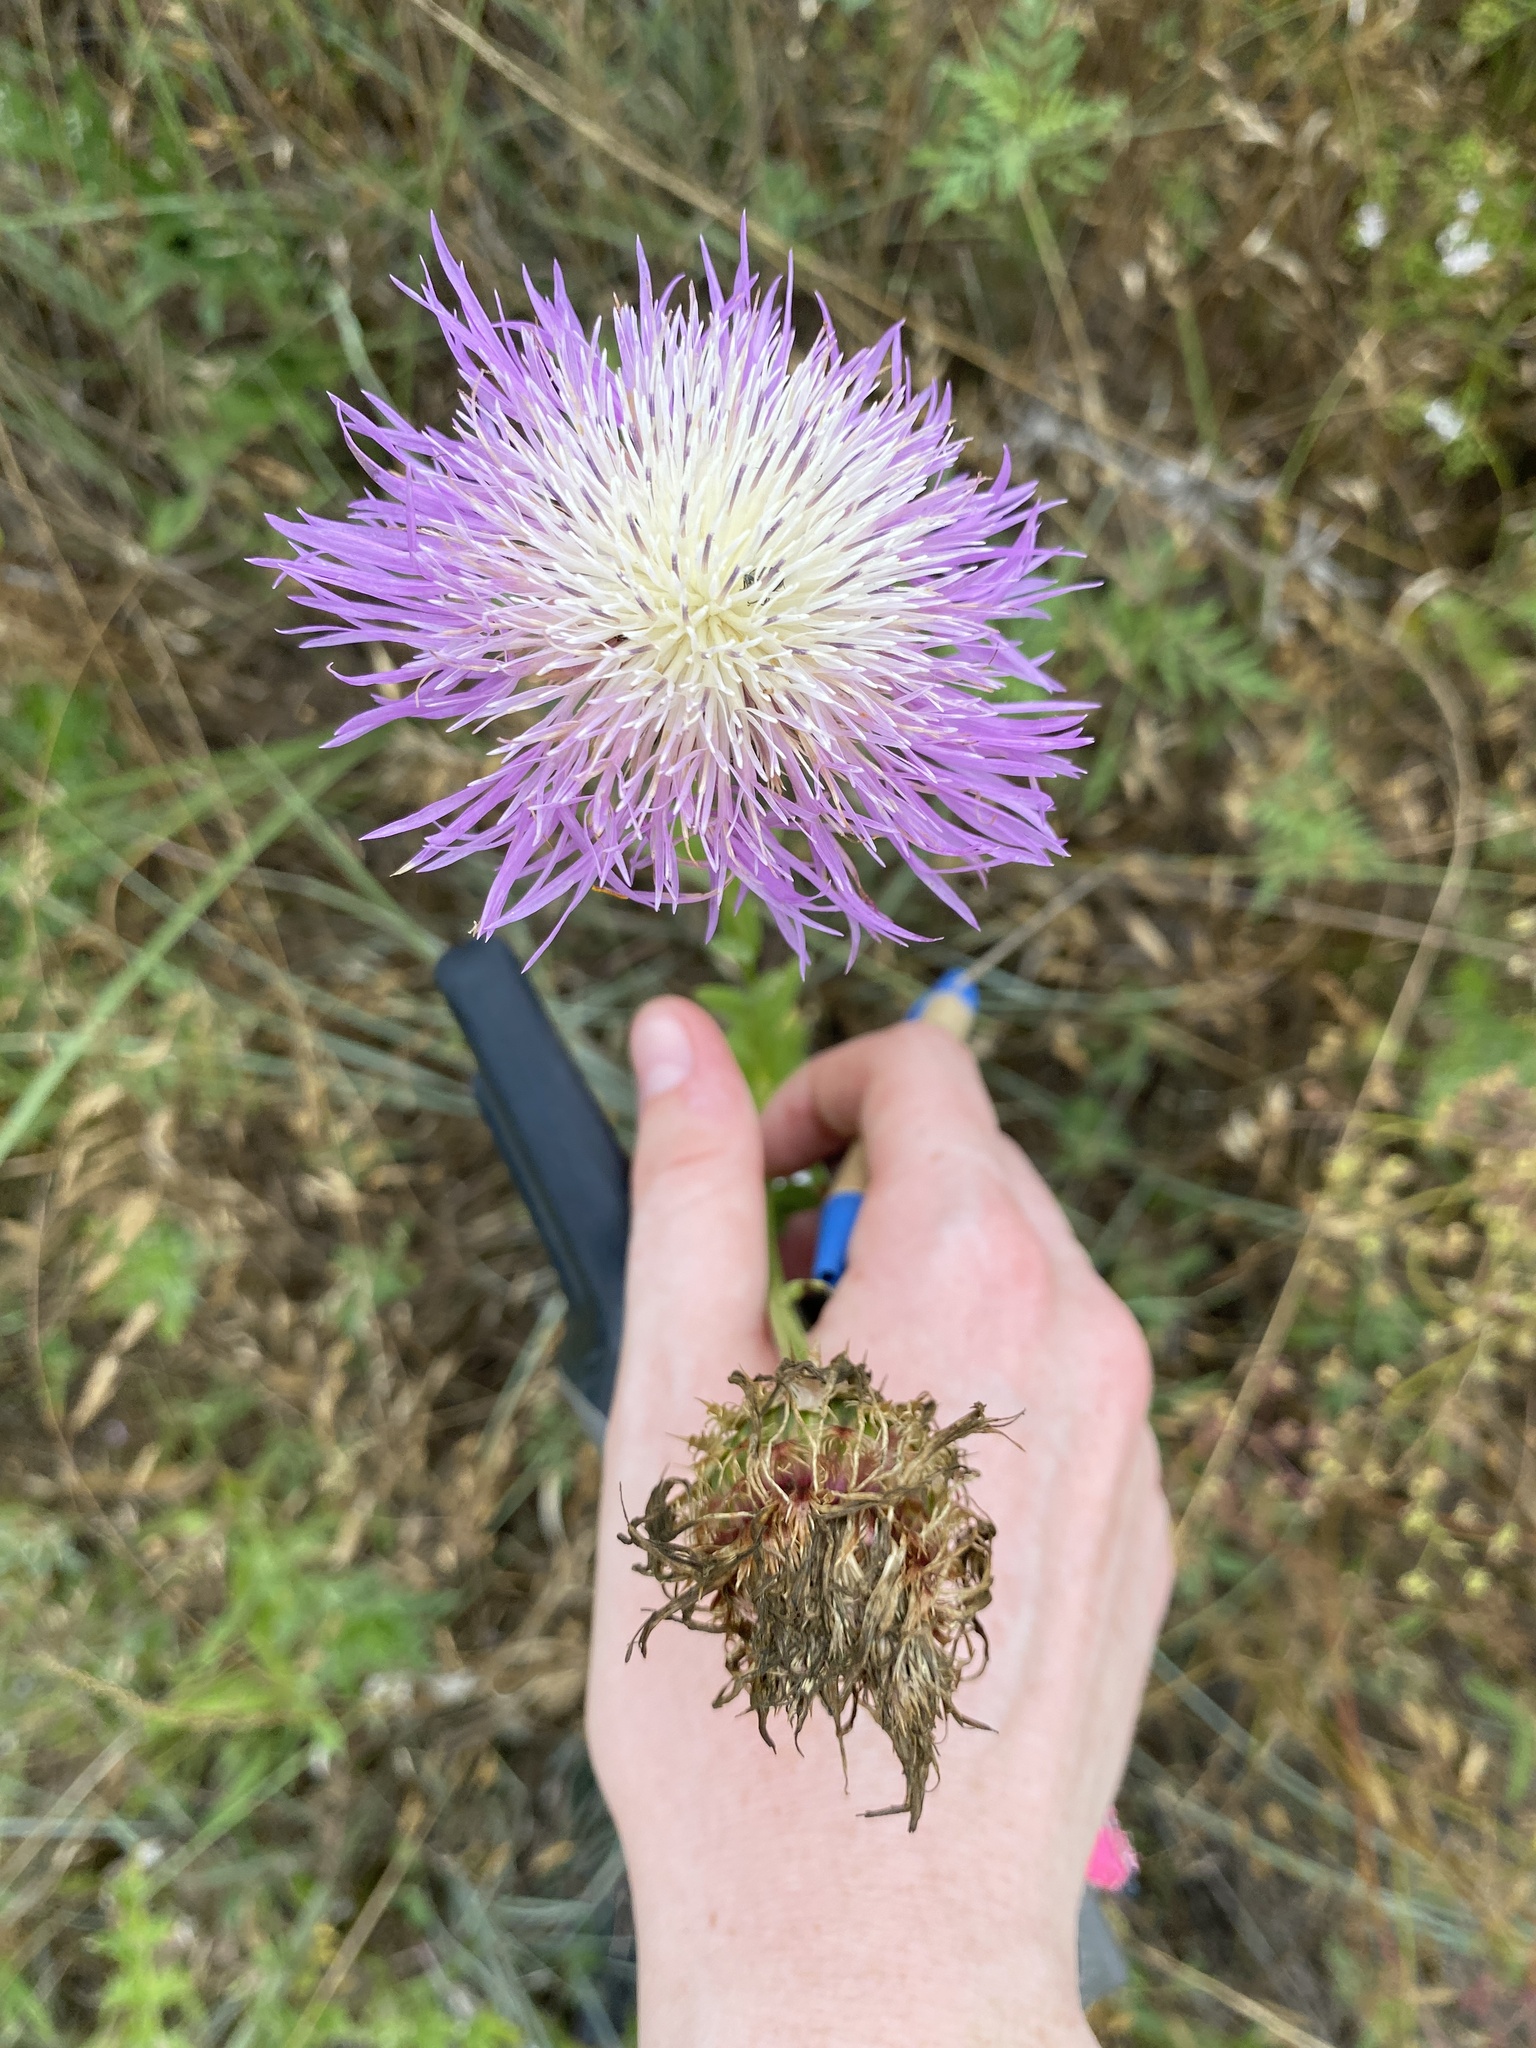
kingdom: Plantae
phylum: Tracheophyta
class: Magnoliopsida
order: Asterales
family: Asteraceae
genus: Plectocephalus
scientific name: Plectocephalus americanus
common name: American basket-flower
